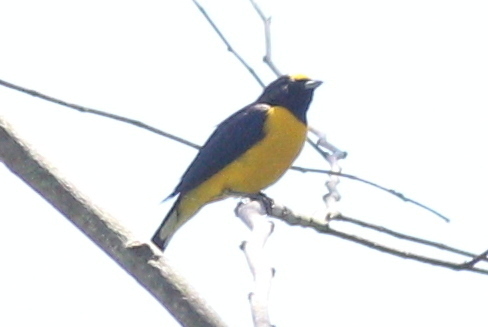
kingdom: Animalia
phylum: Chordata
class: Aves
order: Passeriformes
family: Fringillidae
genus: Euphonia
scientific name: Euphonia chlorotica
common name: Purple-throated euphonia
